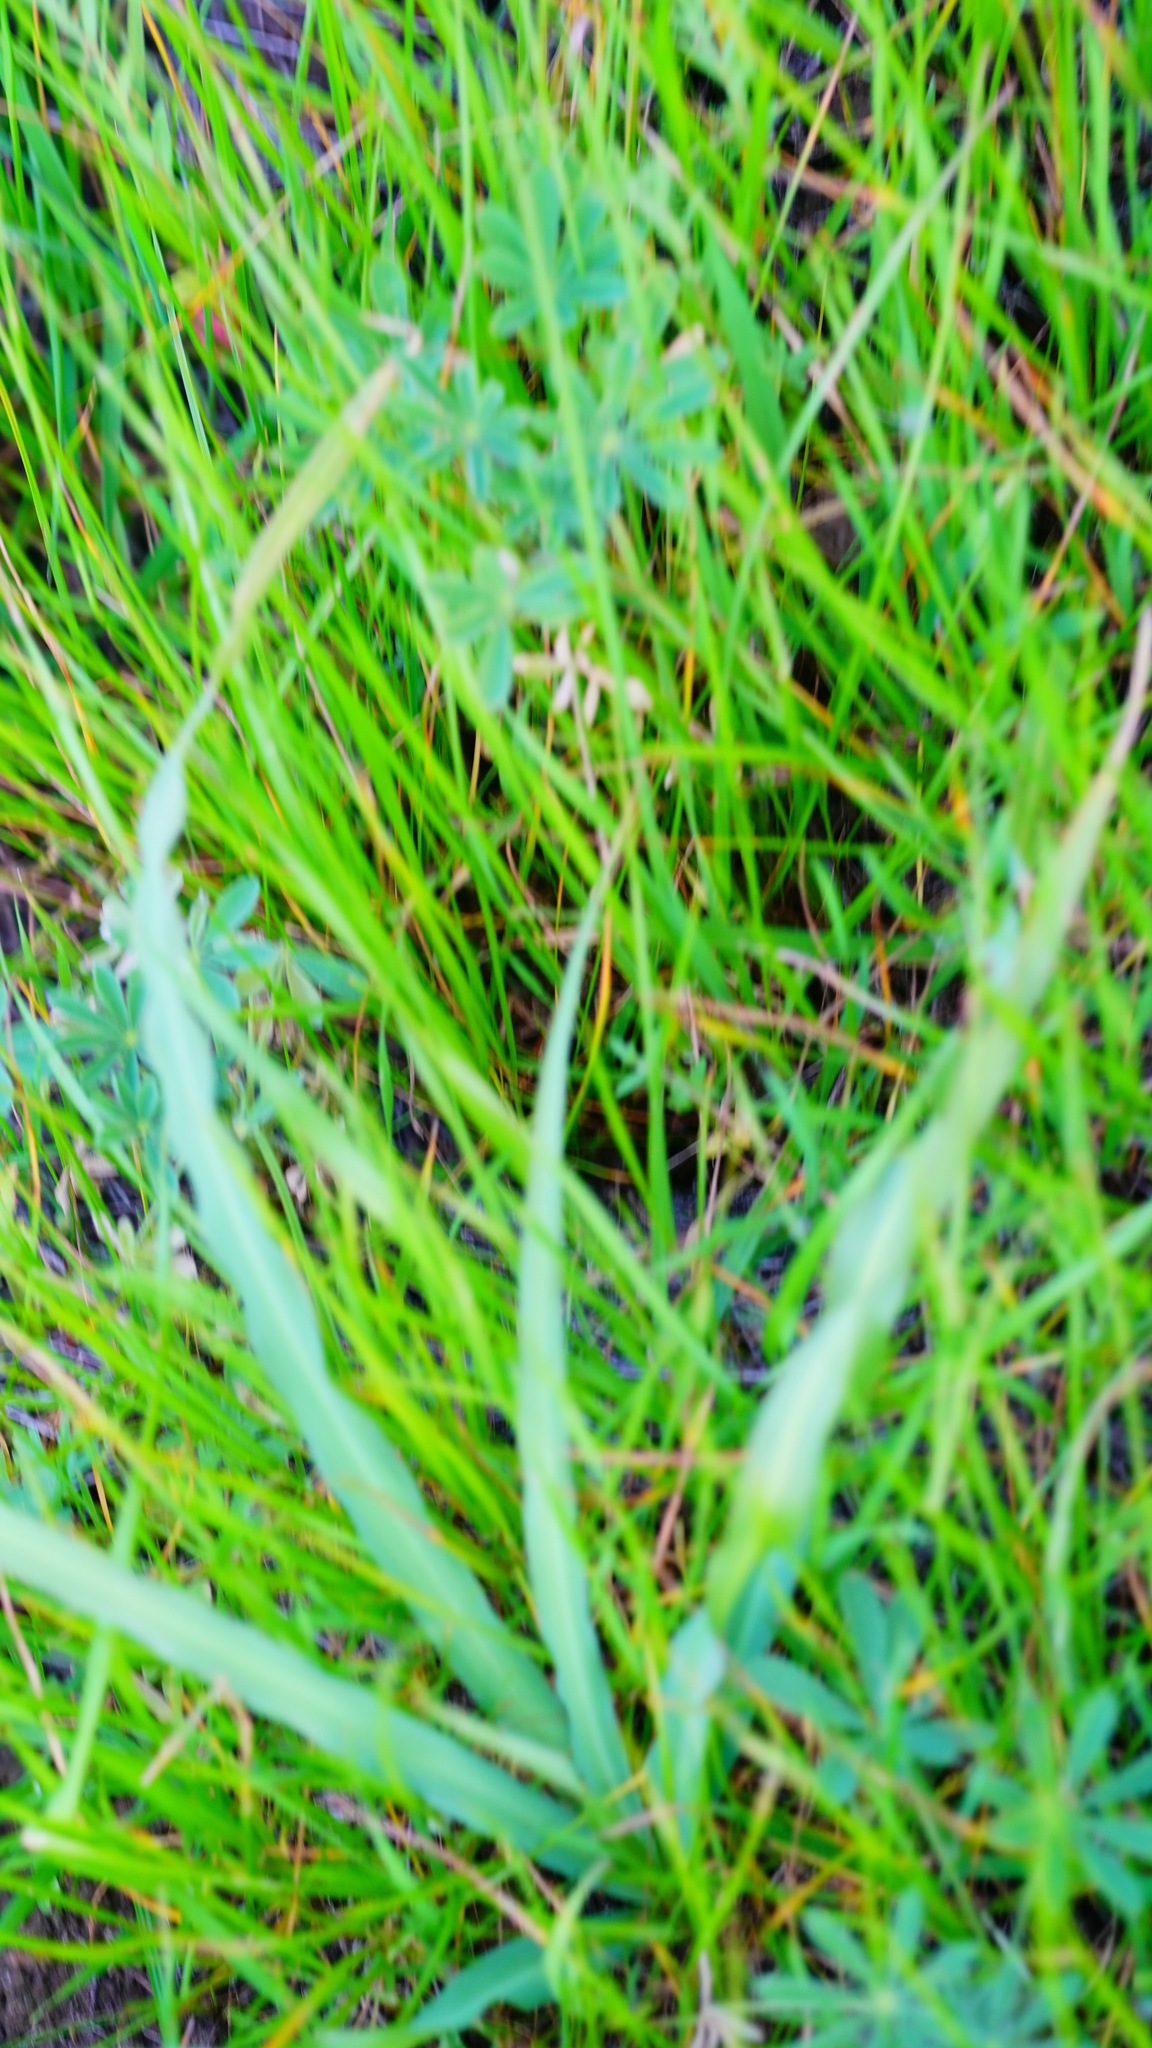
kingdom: Plantae
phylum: Tracheophyta
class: Liliopsida
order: Asparagales
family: Asparagaceae
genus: Chlorogalum
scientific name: Chlorogalum pomeridianum
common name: Amole
